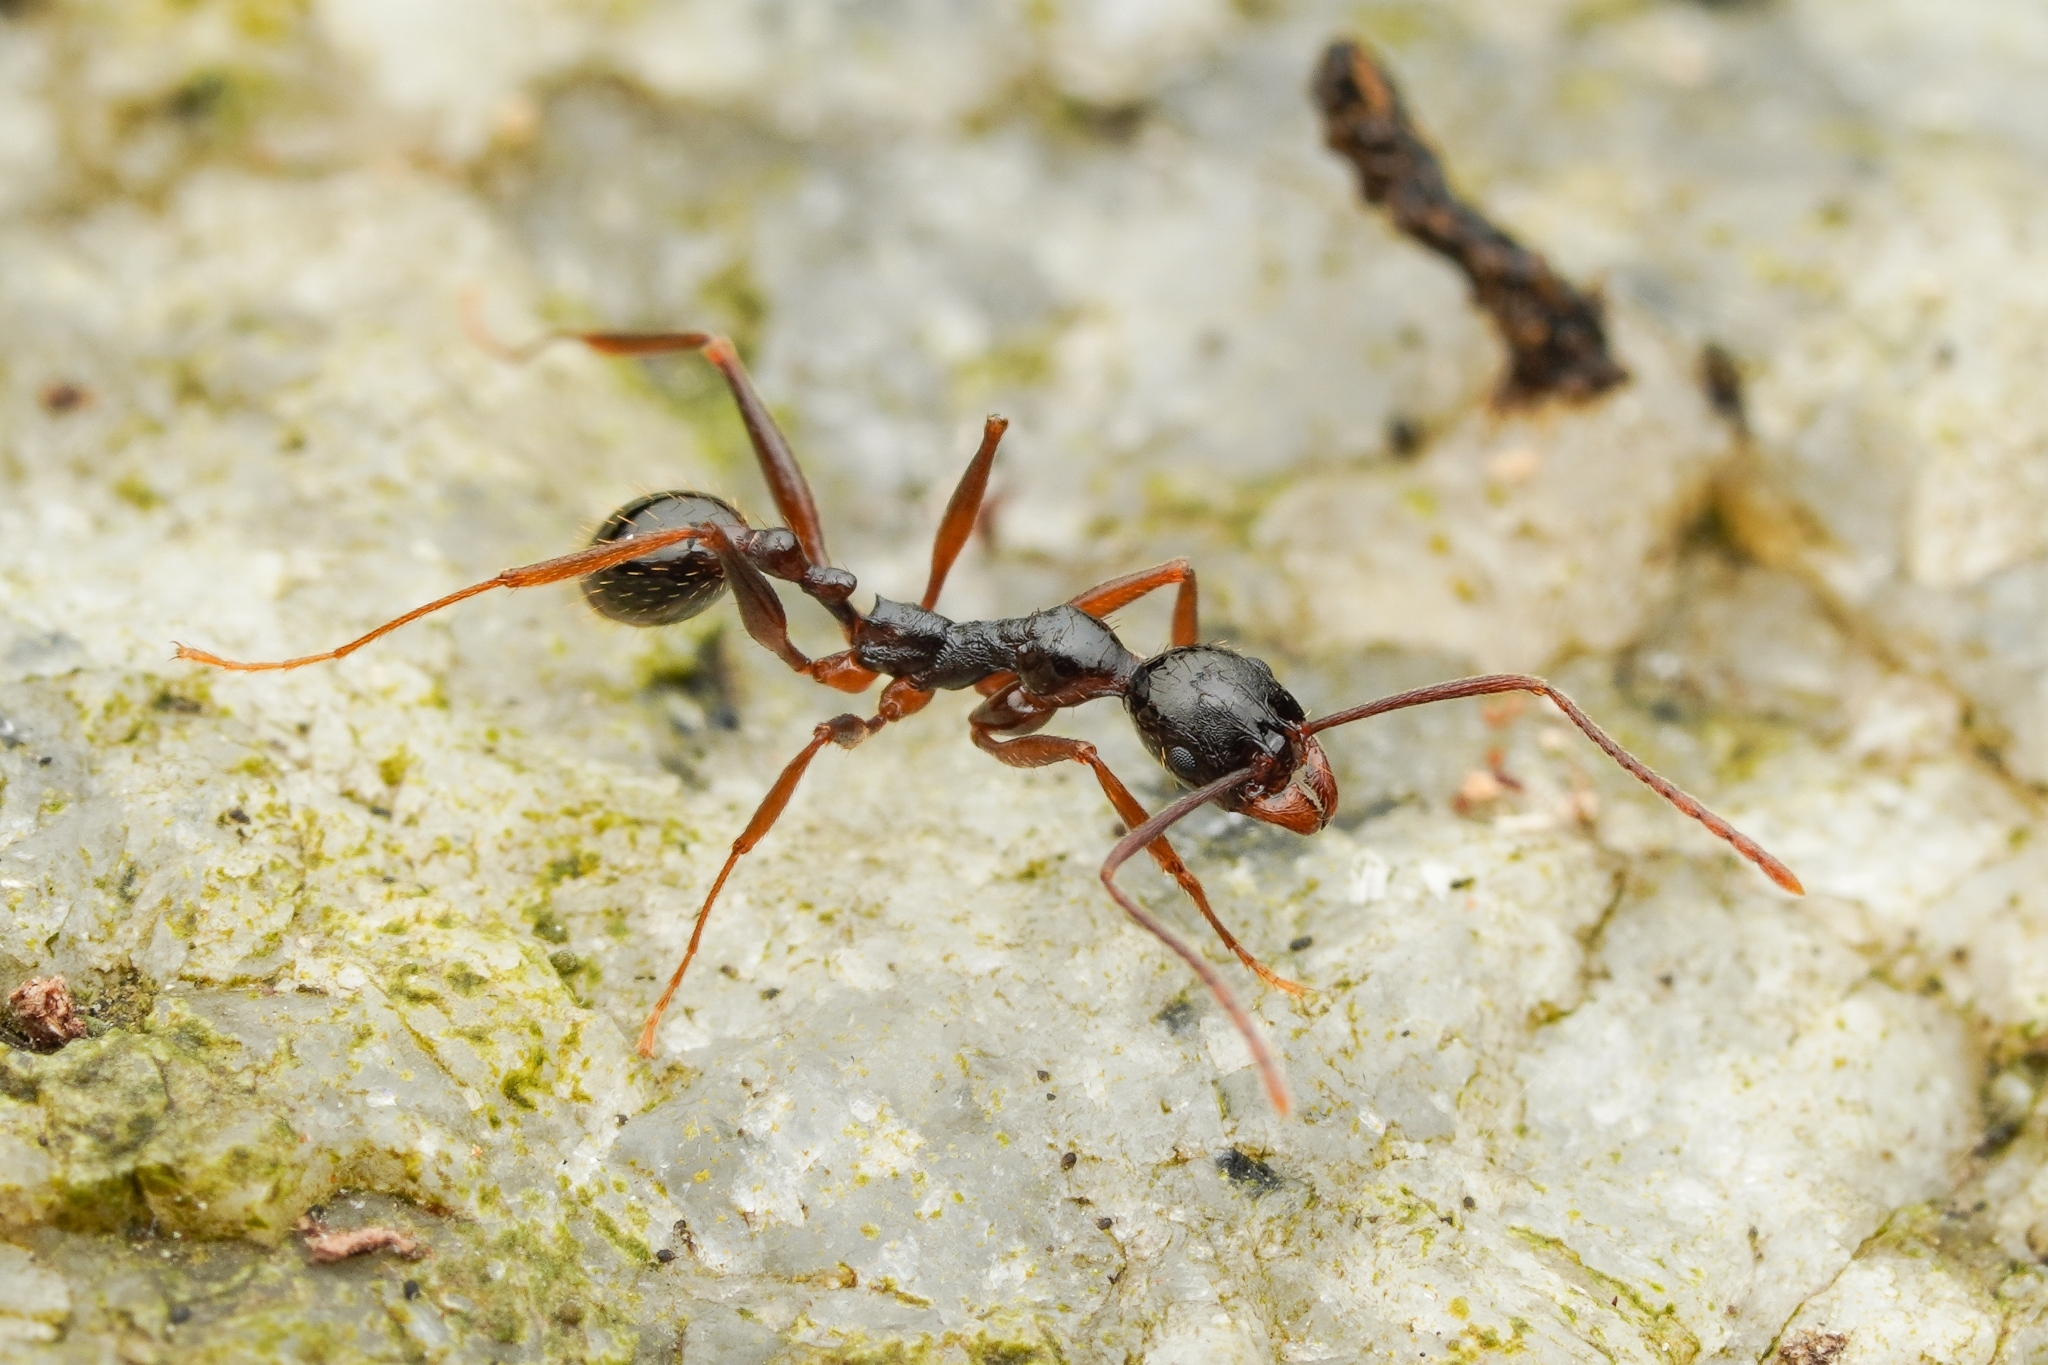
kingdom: Animalia
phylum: Arthropoda
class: Insecta
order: Hymenoptera
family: Formicidae
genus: Aphaenogaster
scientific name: Aphaenogaster famelica
